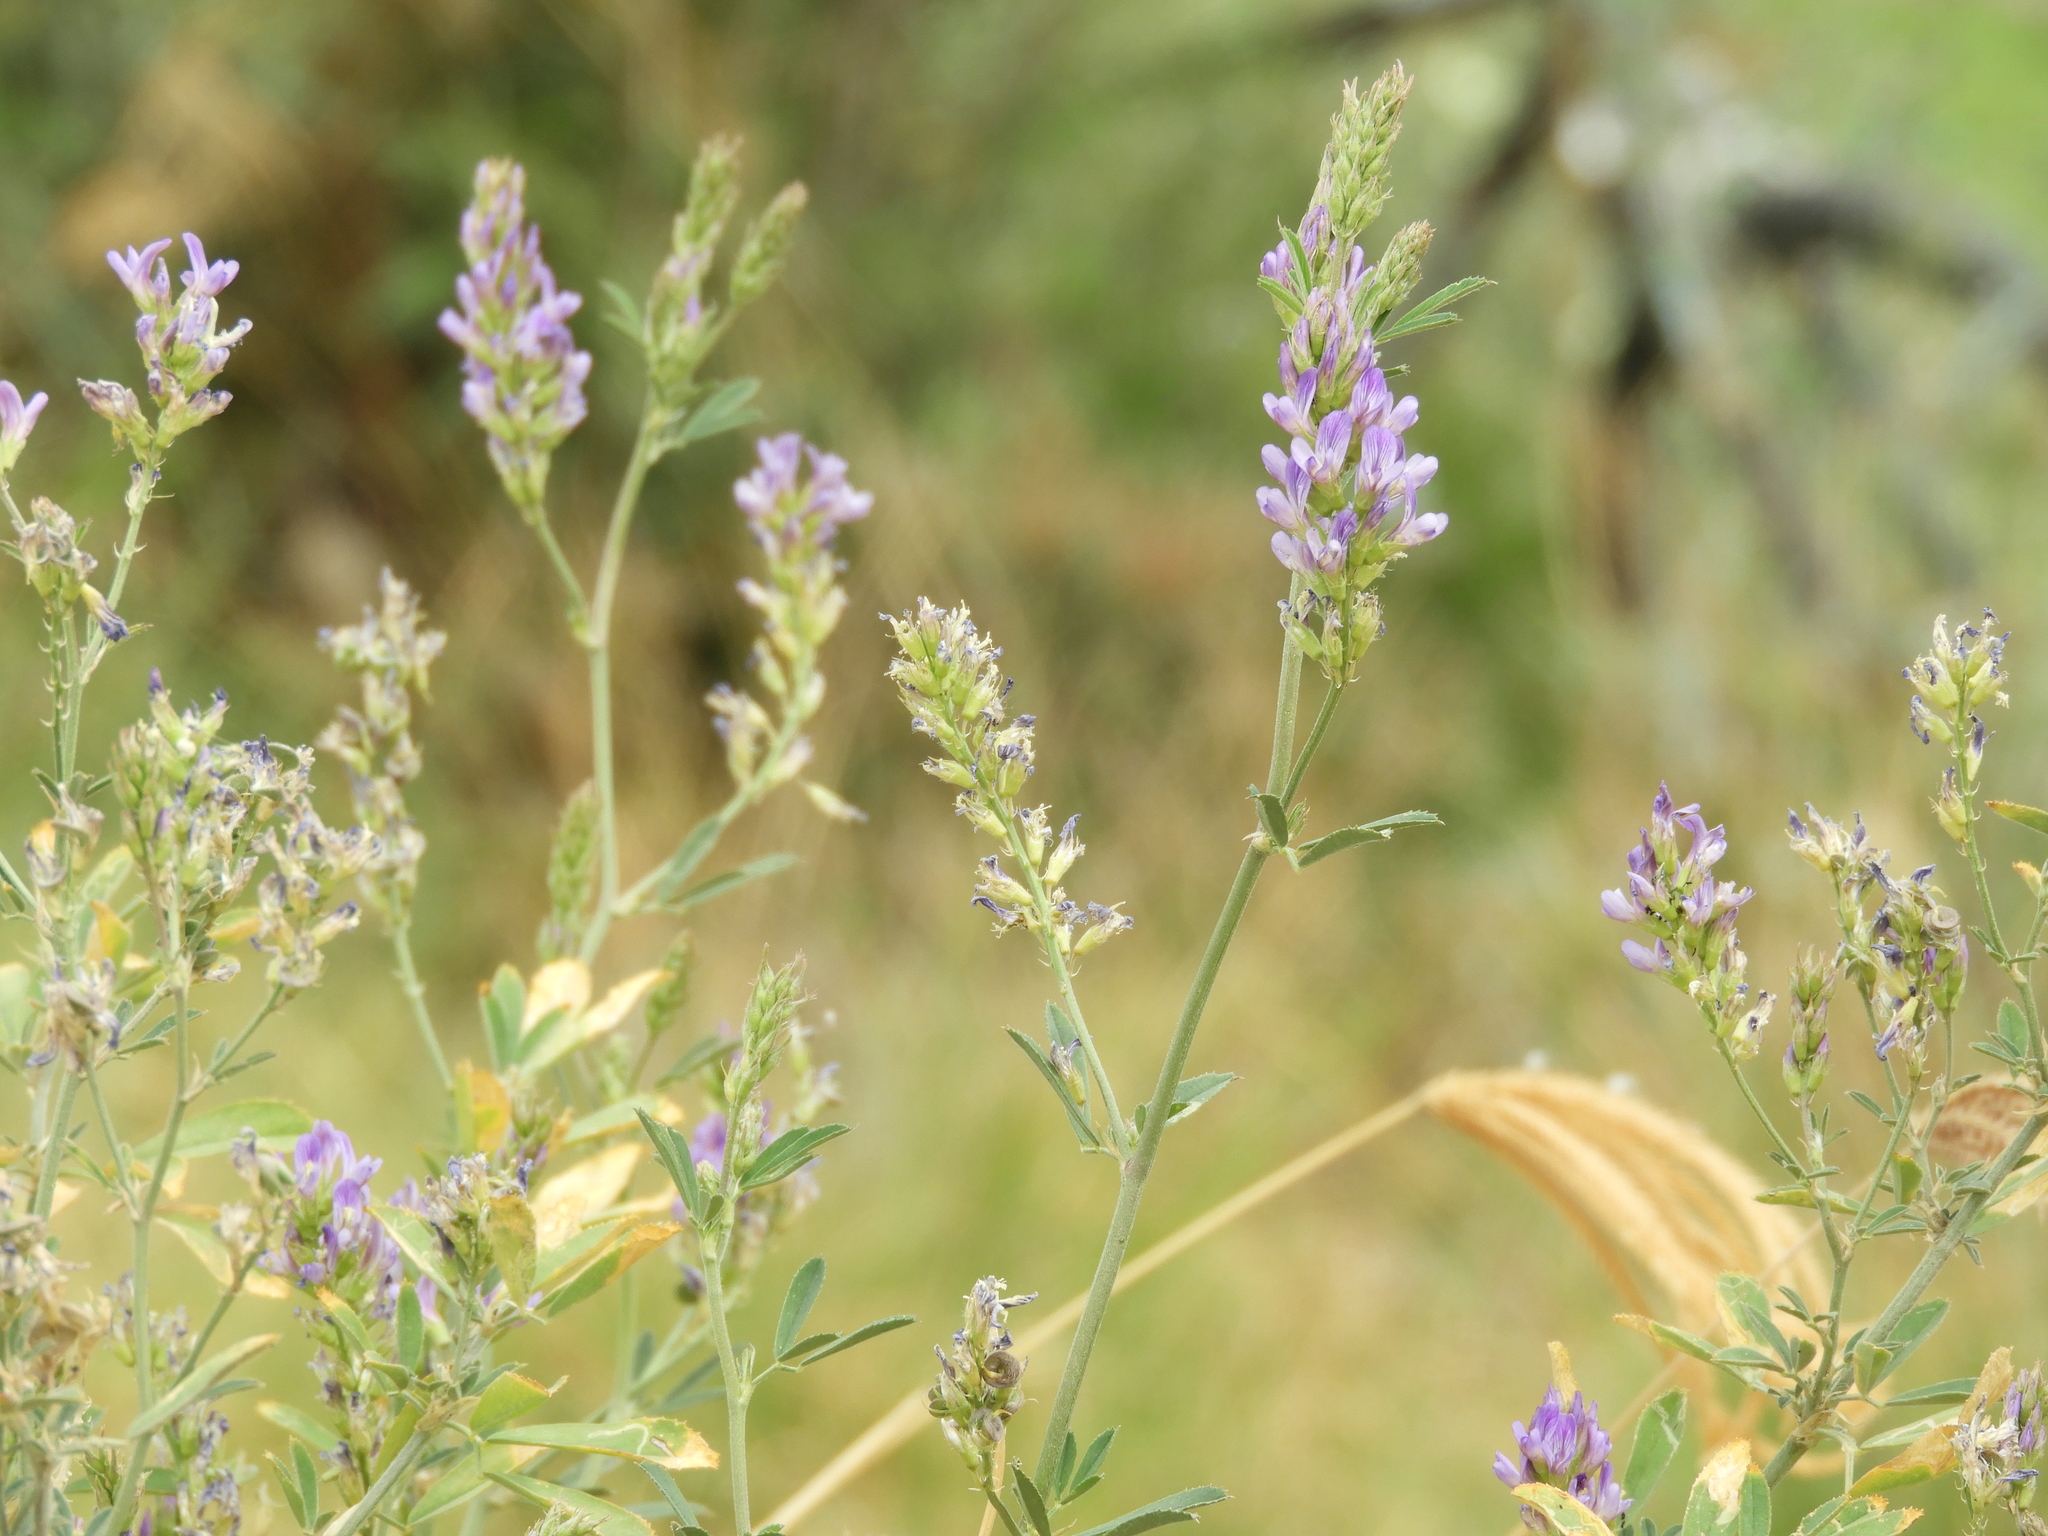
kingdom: Plantae
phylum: Tracheophyta
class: Magnoliopsida
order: Fabales
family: Fabaceae
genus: Medicago
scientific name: Medicago sativa
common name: Alfalfa
